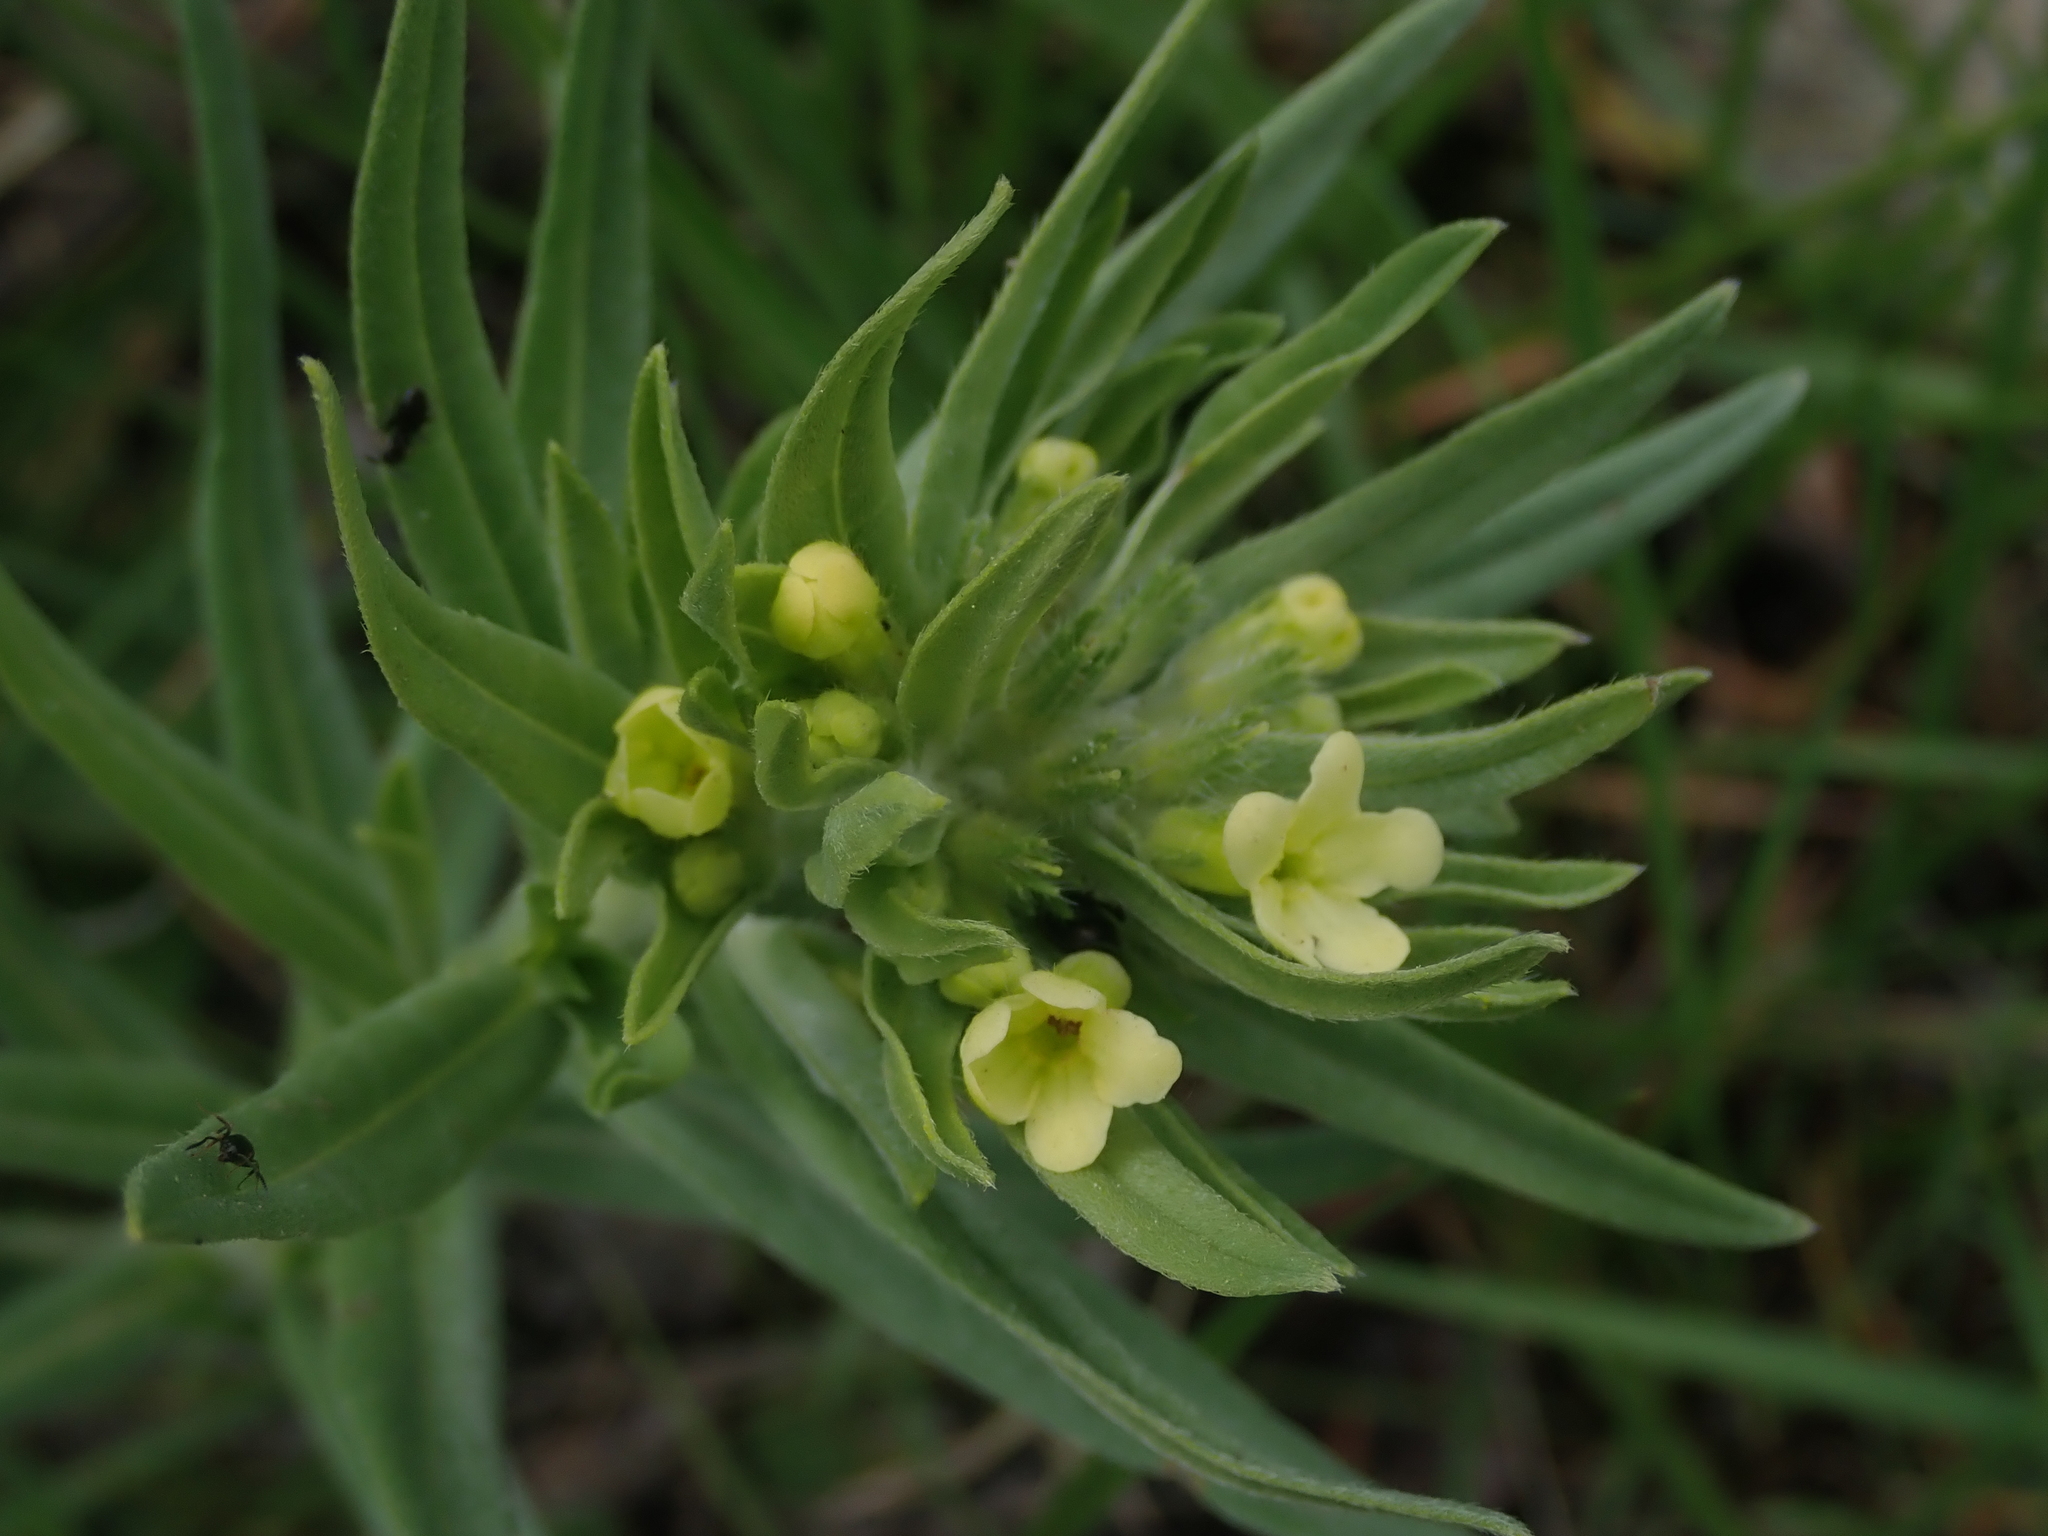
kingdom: Plantae
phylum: Tracheophyta
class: Magnoliopsida
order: Boraginales
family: Boraginaceae
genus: Lithospermum
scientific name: Lithospermum ruderale
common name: Western gromwell
